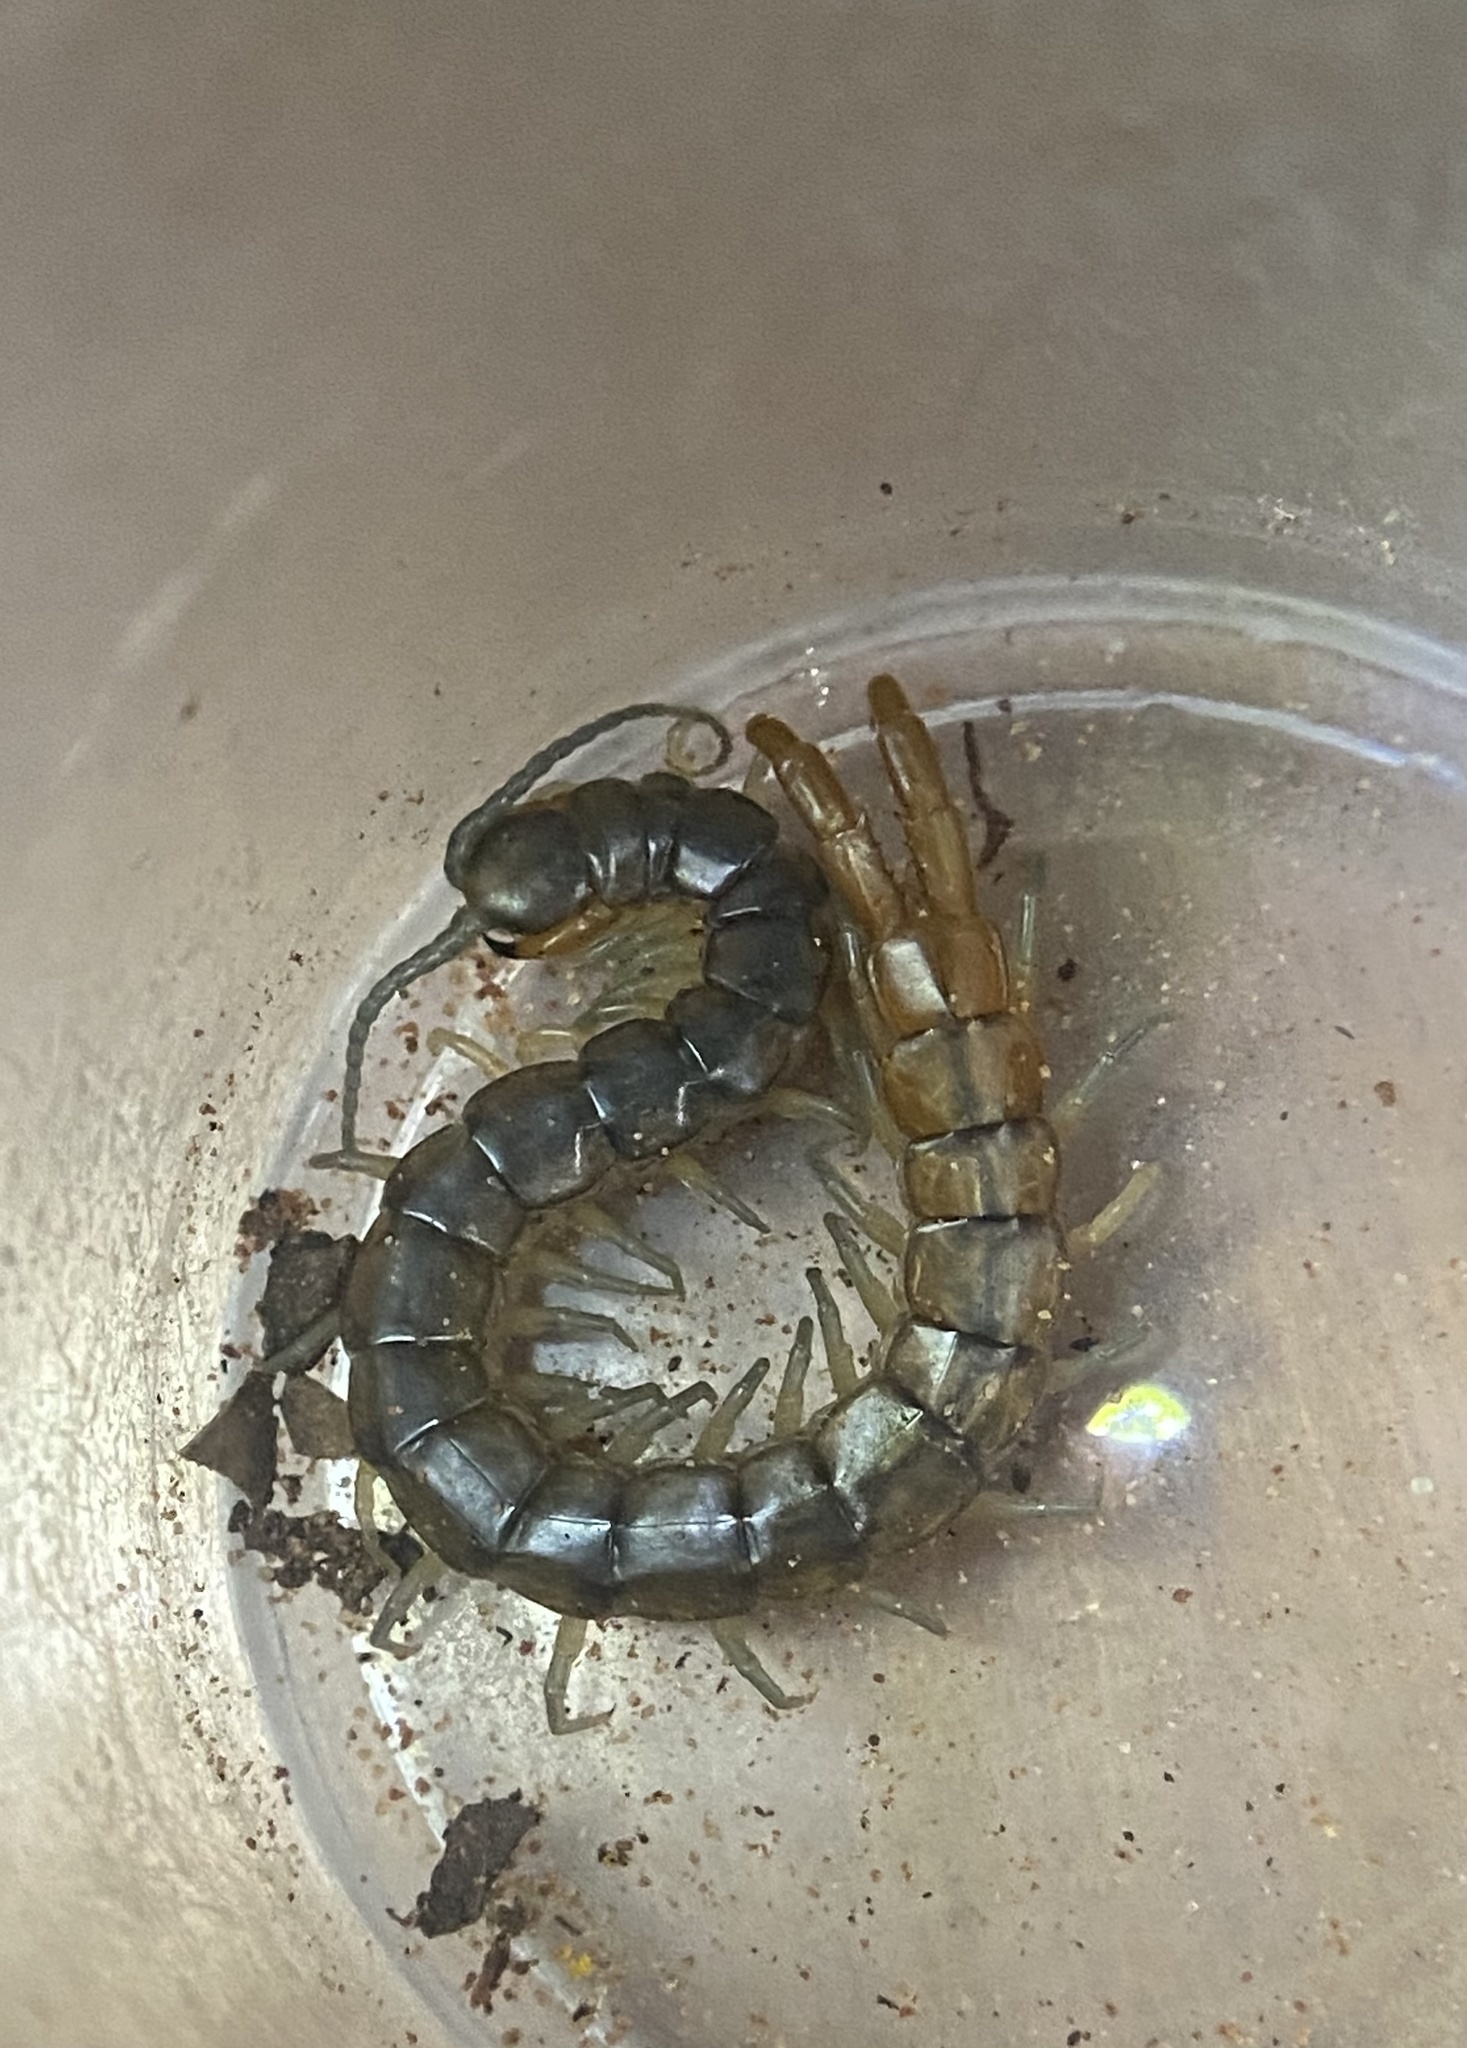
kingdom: Animalia
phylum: Arthropoda
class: Chilopoda
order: Scolopendromorpha
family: Scolopendridae
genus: Scolopendra
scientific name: Scolopendra viridis
